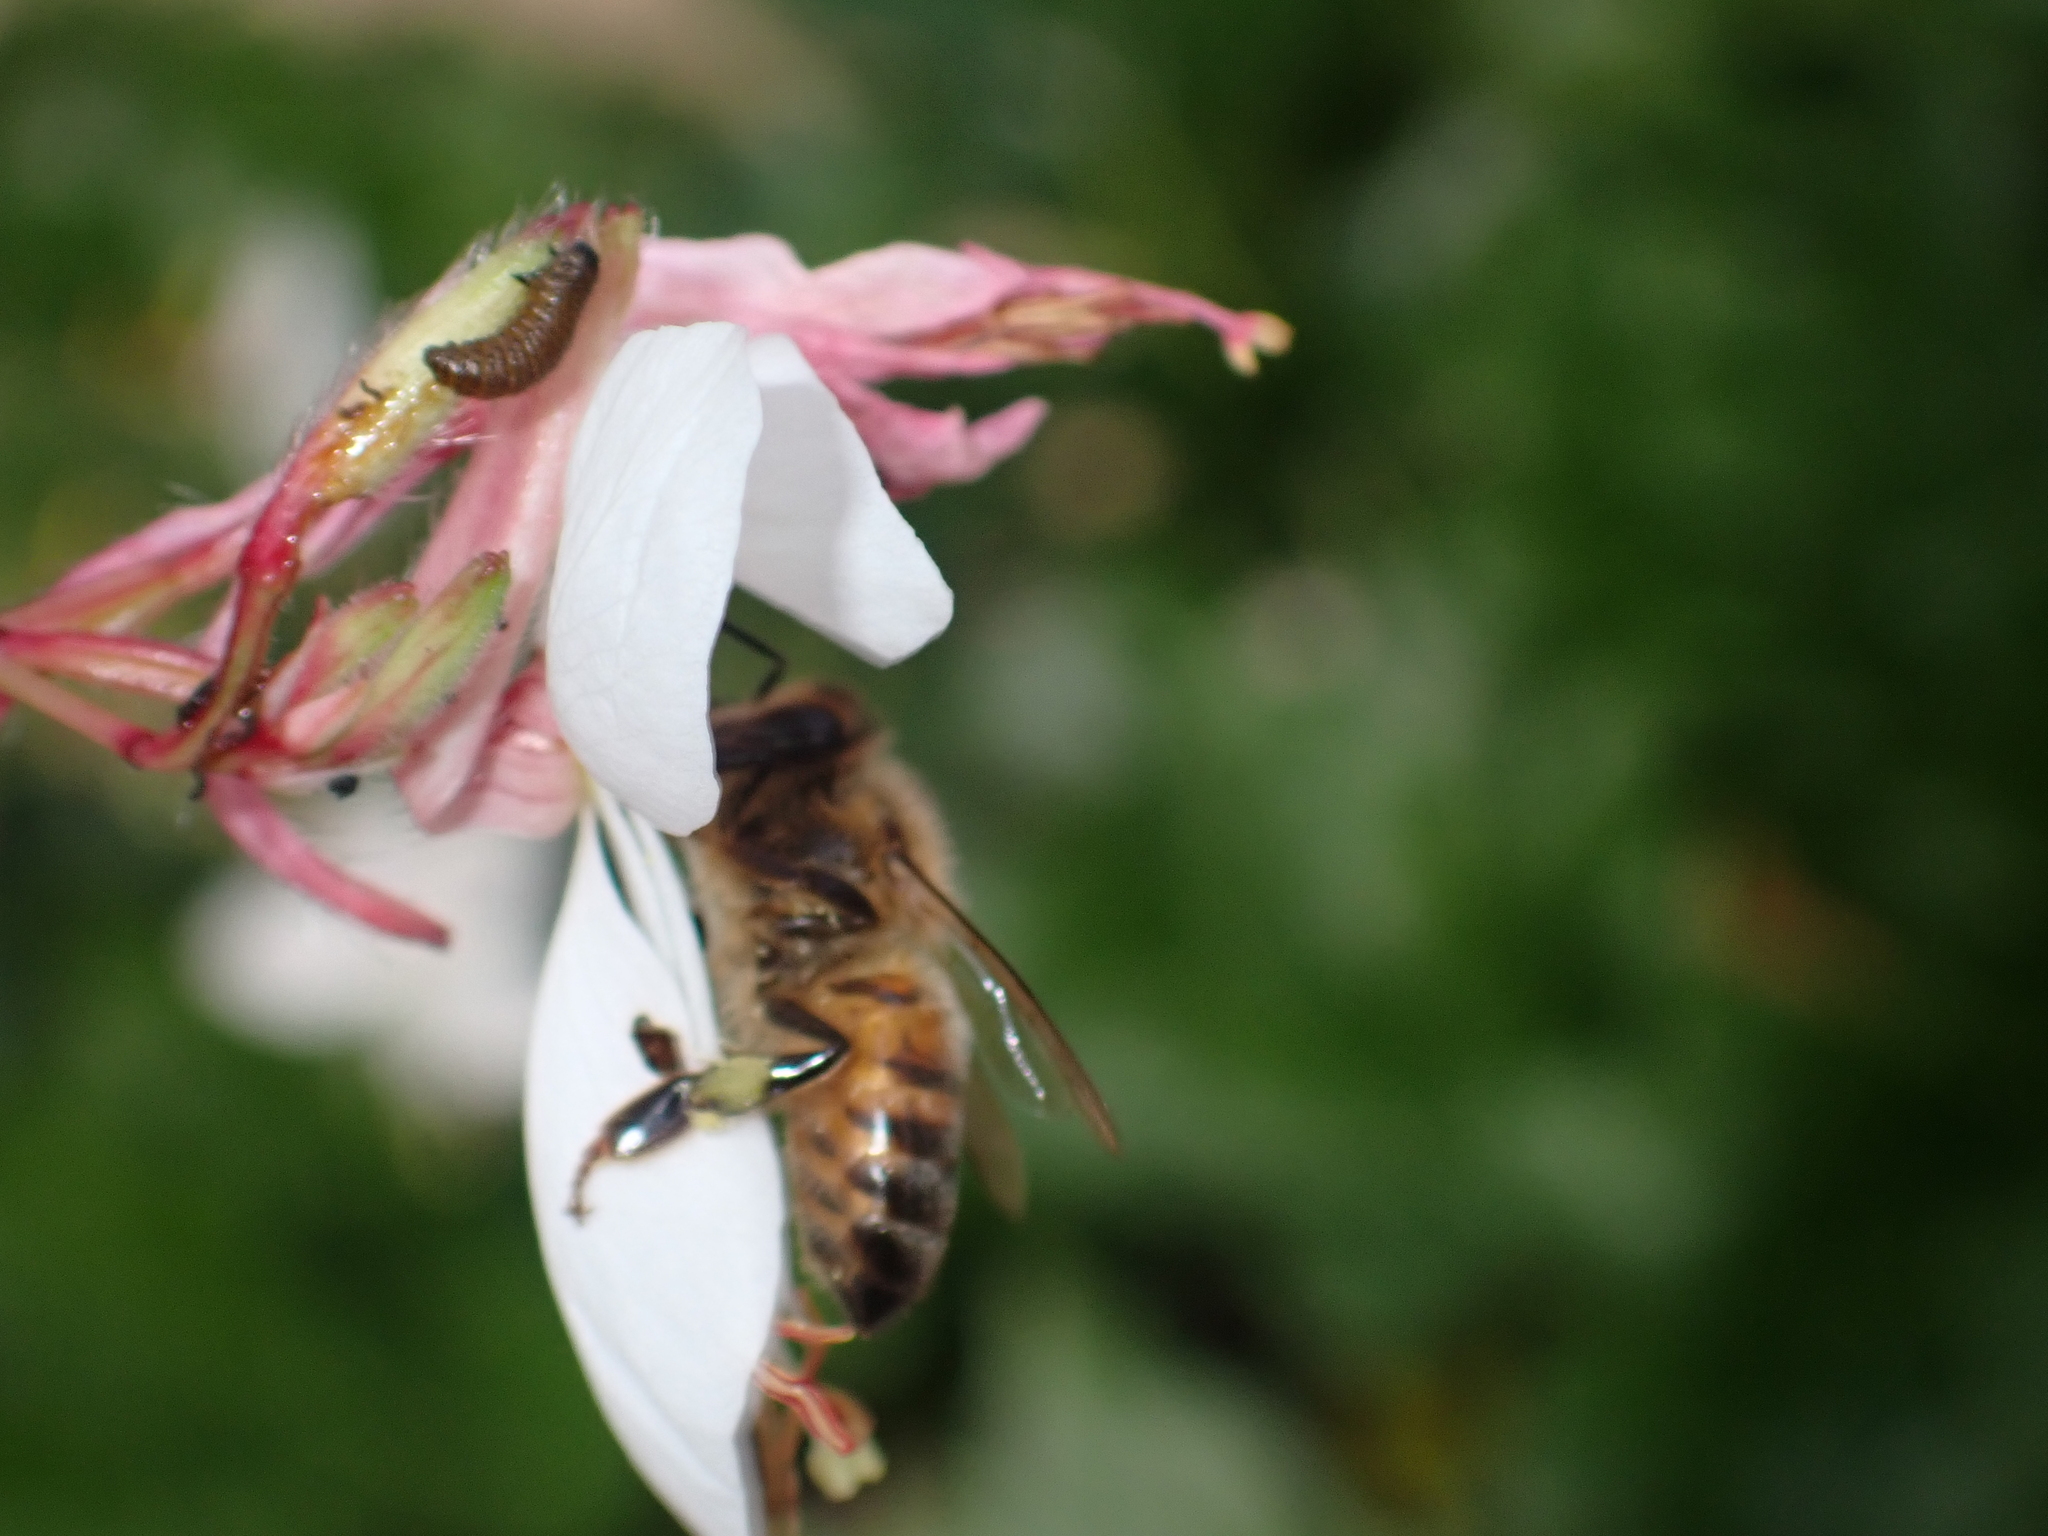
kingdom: Animalia
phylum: Arthropoda
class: Insecta
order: Hymenoptera
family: Apidae
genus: Apis
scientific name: Apis mellifera
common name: Honey bee
